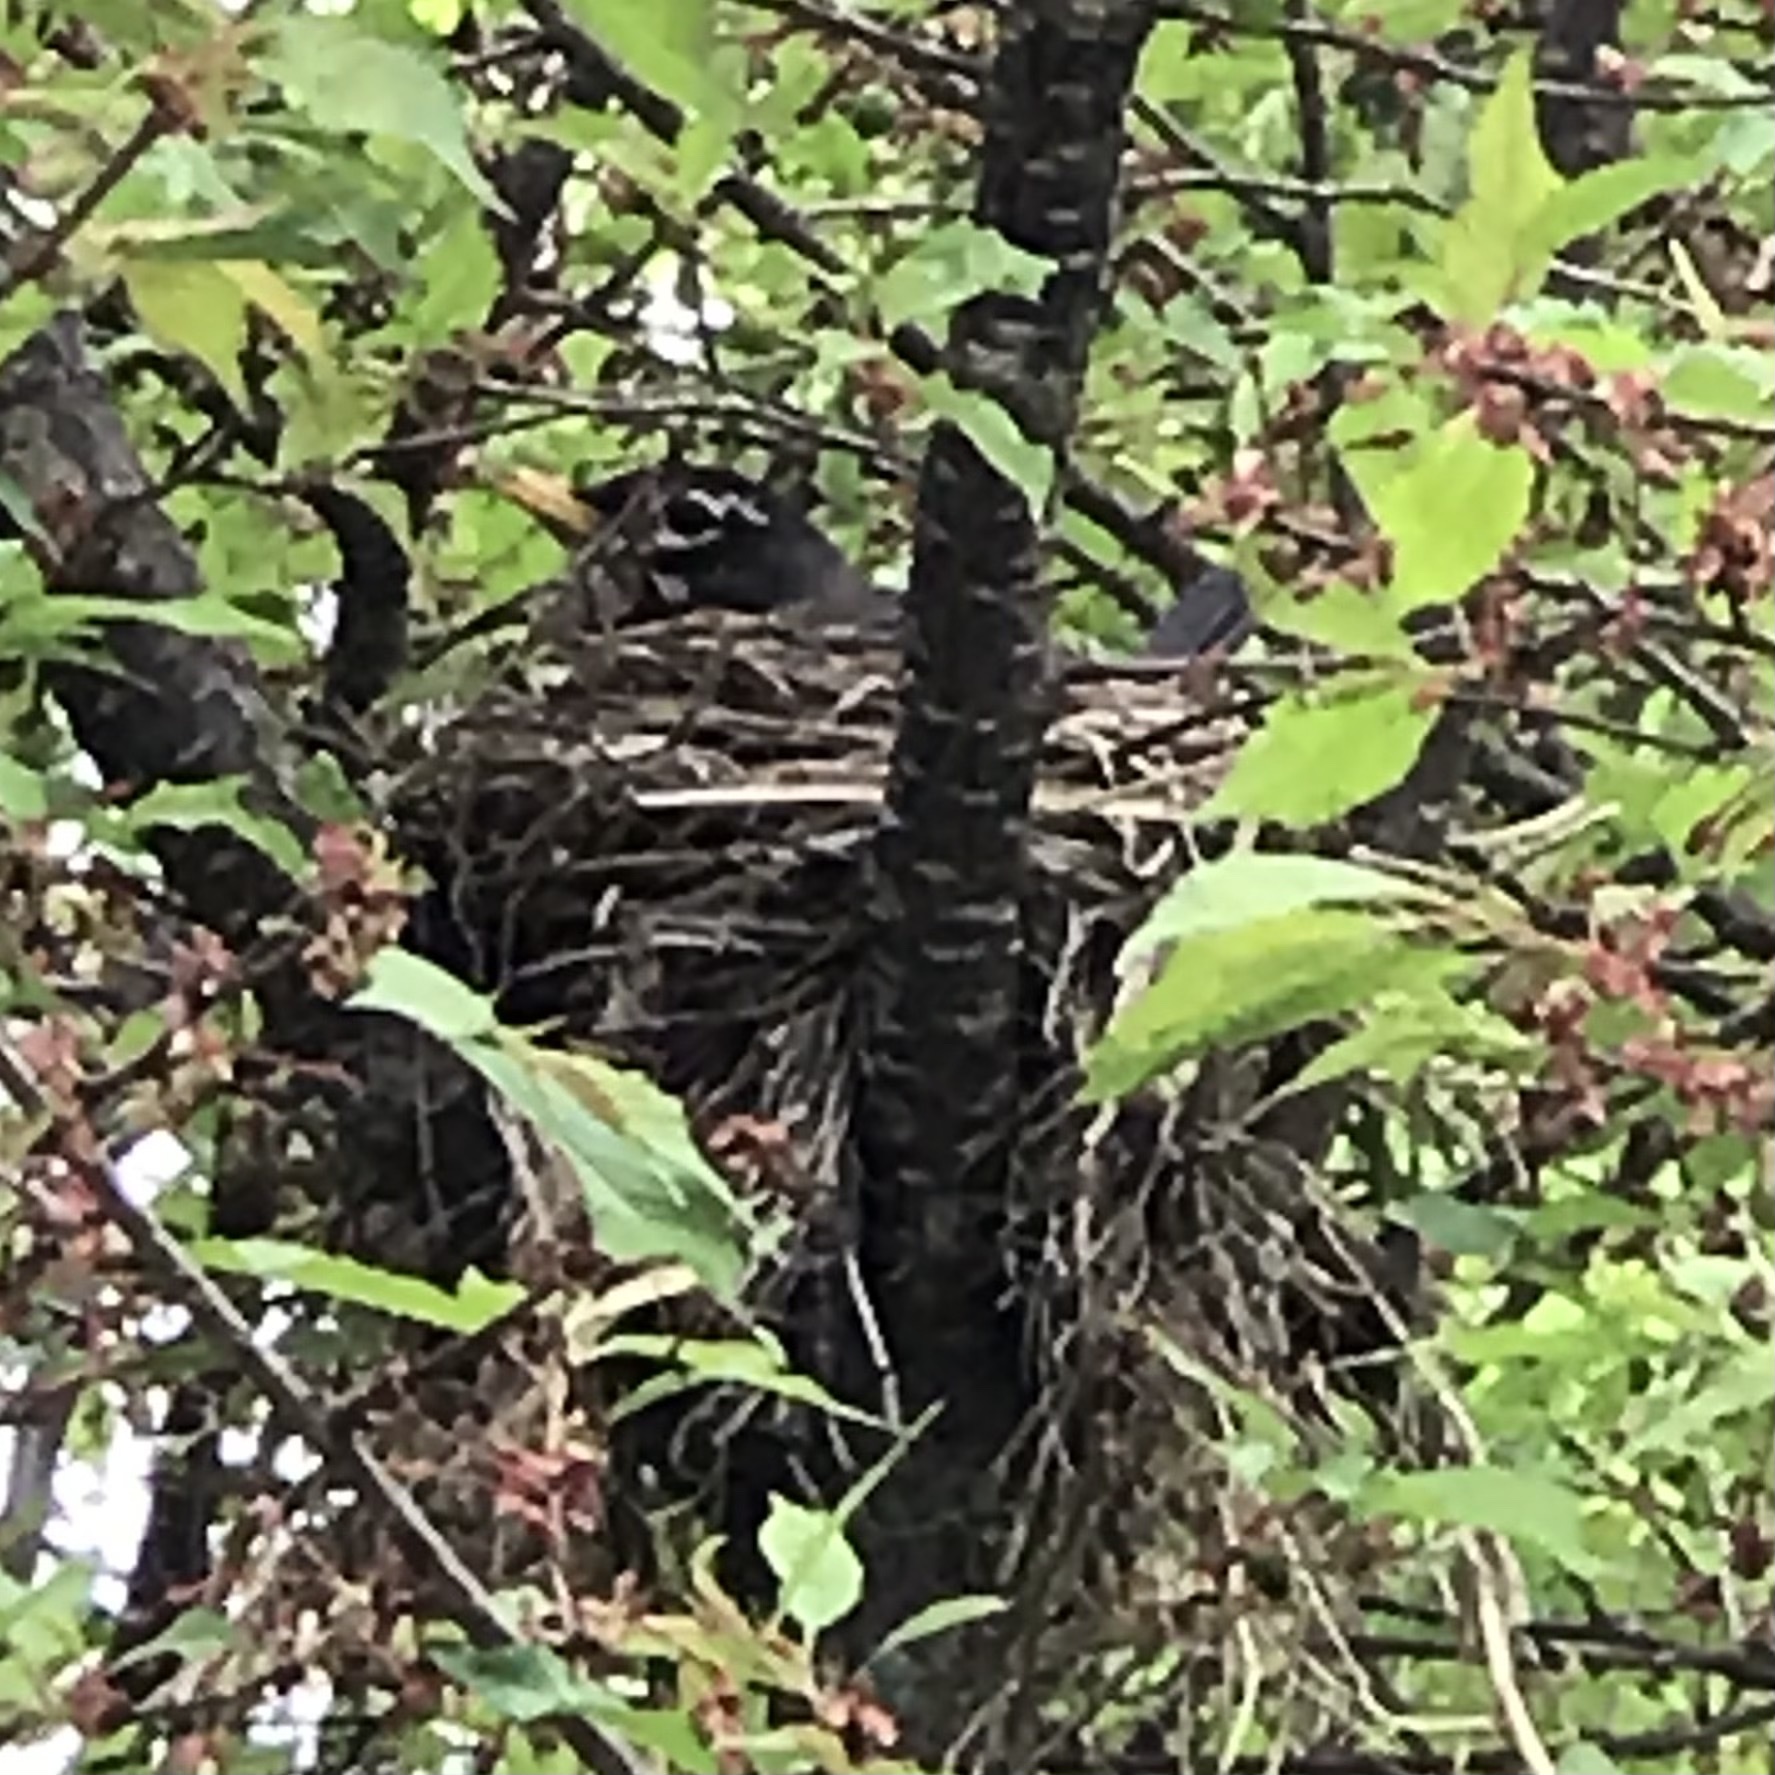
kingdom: Animalia
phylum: Chordata
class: Aves
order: Passeriformes
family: Turdidae
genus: Turdus
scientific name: Turdus migratorius
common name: American robin
